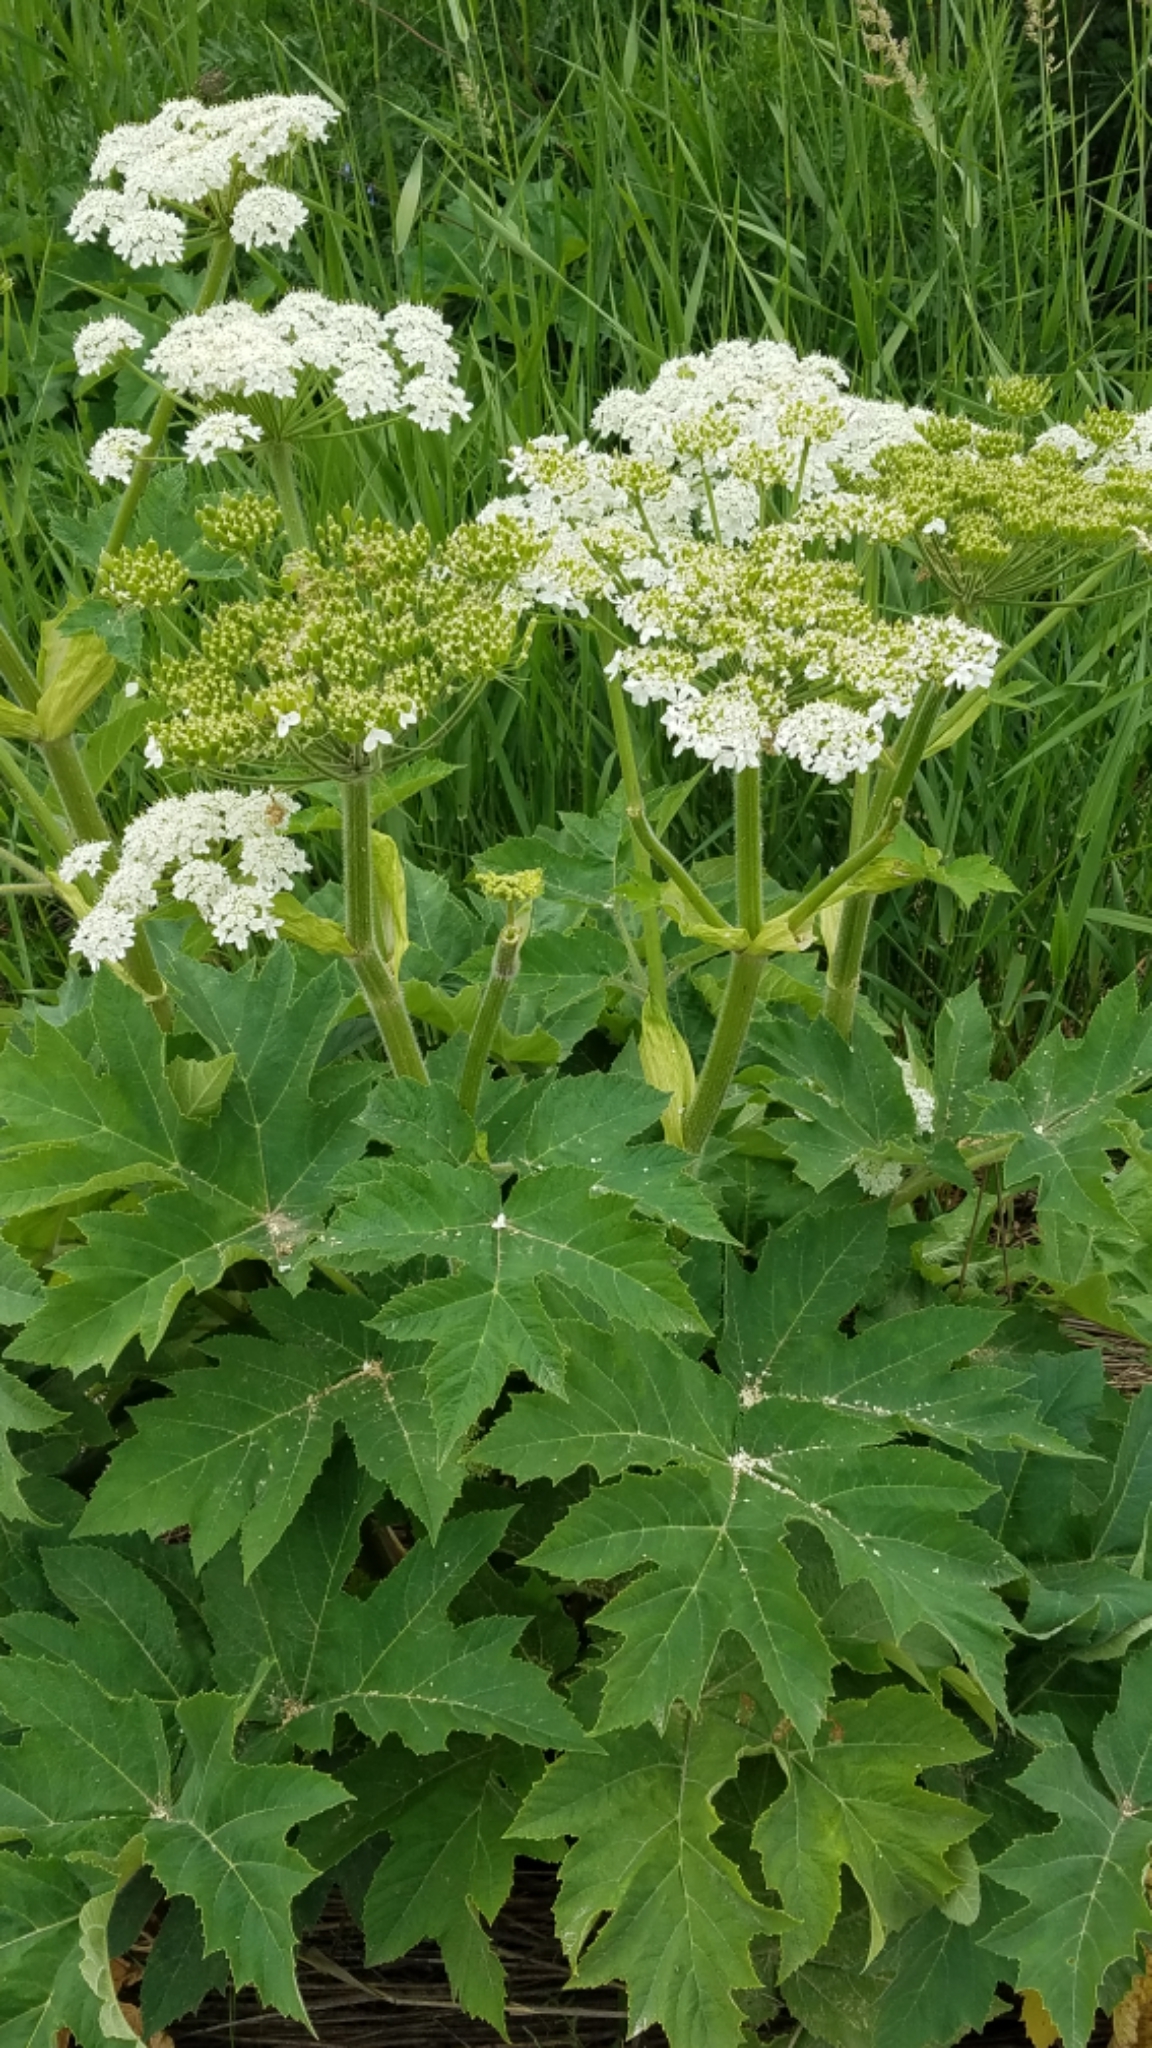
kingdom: Plantae
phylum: Tracheophyta
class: Magnoliopsida
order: Apiales
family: Apiaceae
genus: Heracleum
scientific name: Heracleum maximum
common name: American cow parsnip
